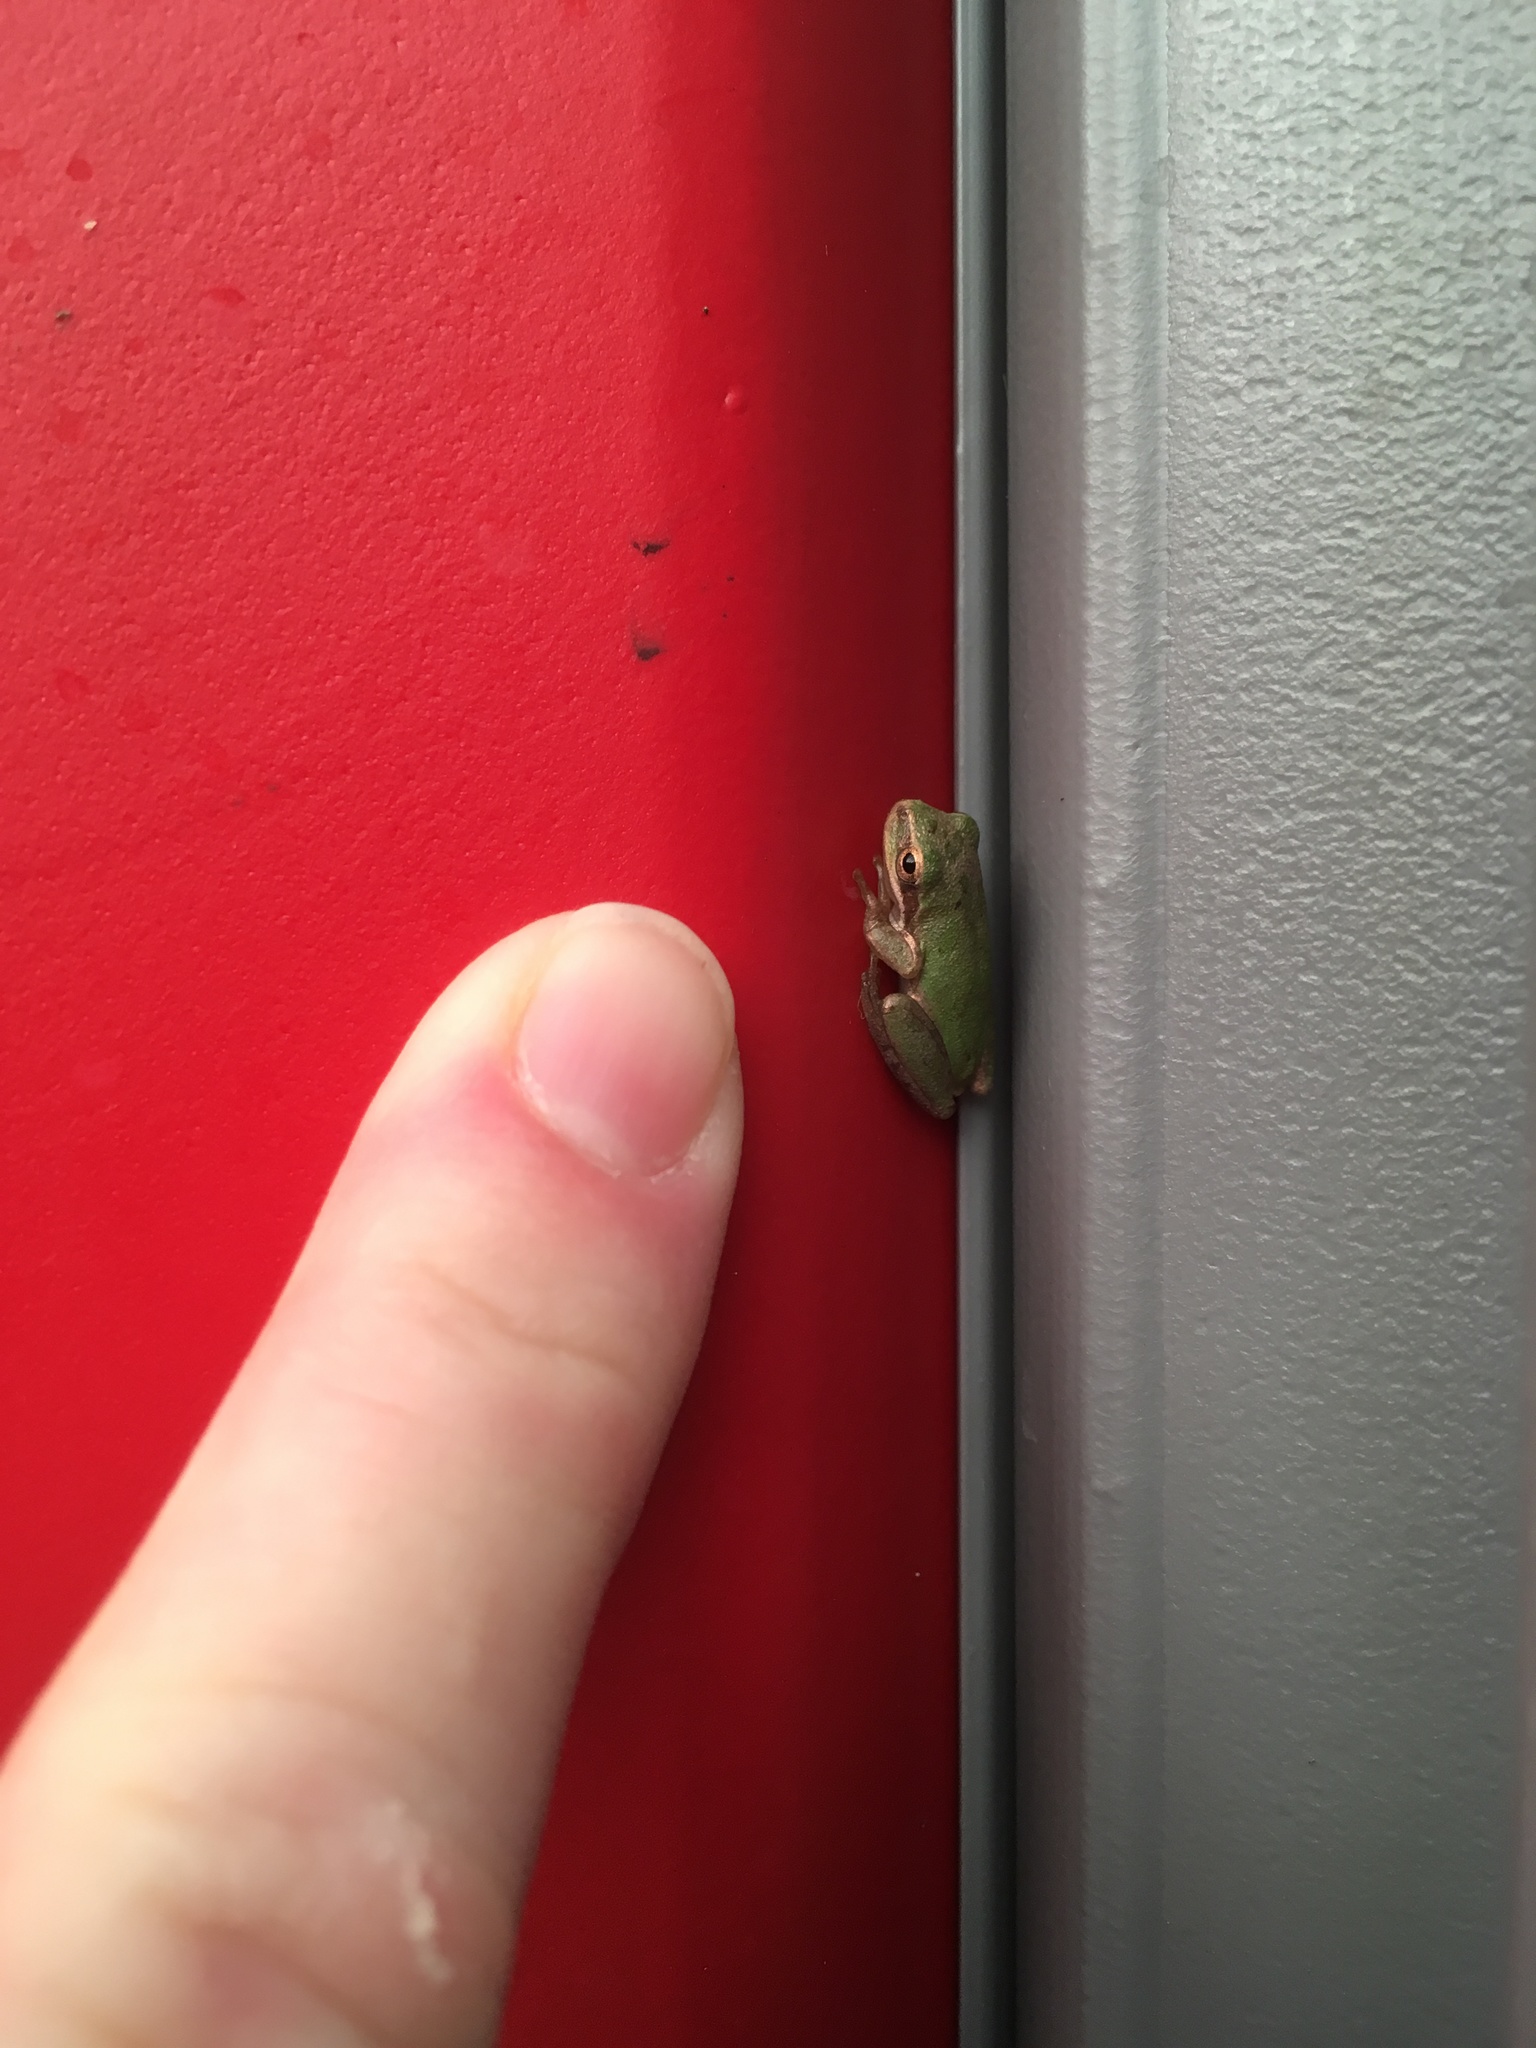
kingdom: Animalia
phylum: Chordata
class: Amphibia
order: Anura
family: Hylidae
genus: Dryophytes
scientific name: Dryophytes squirellus
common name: Squirrel treefrog
